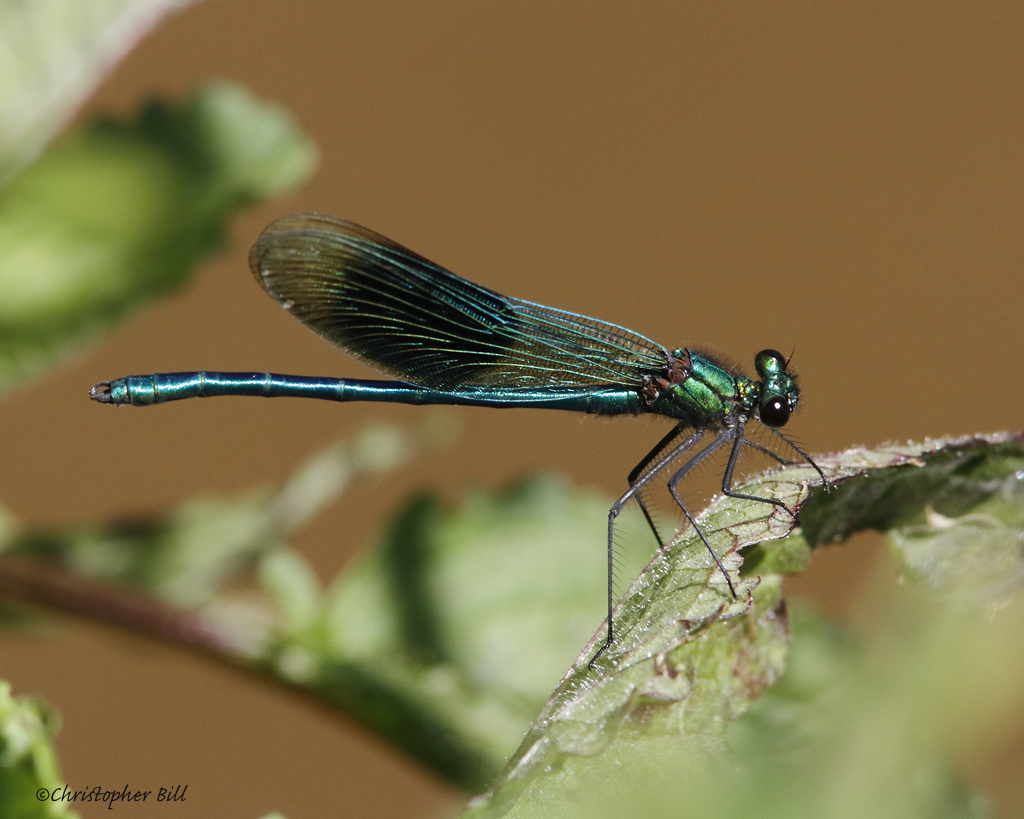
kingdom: Animalia
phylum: Arthropoda
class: Insecta
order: Odonata
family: Calopterygidae
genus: Calopteryx
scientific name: Calopteryx splendens
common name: Banded demoiselle
